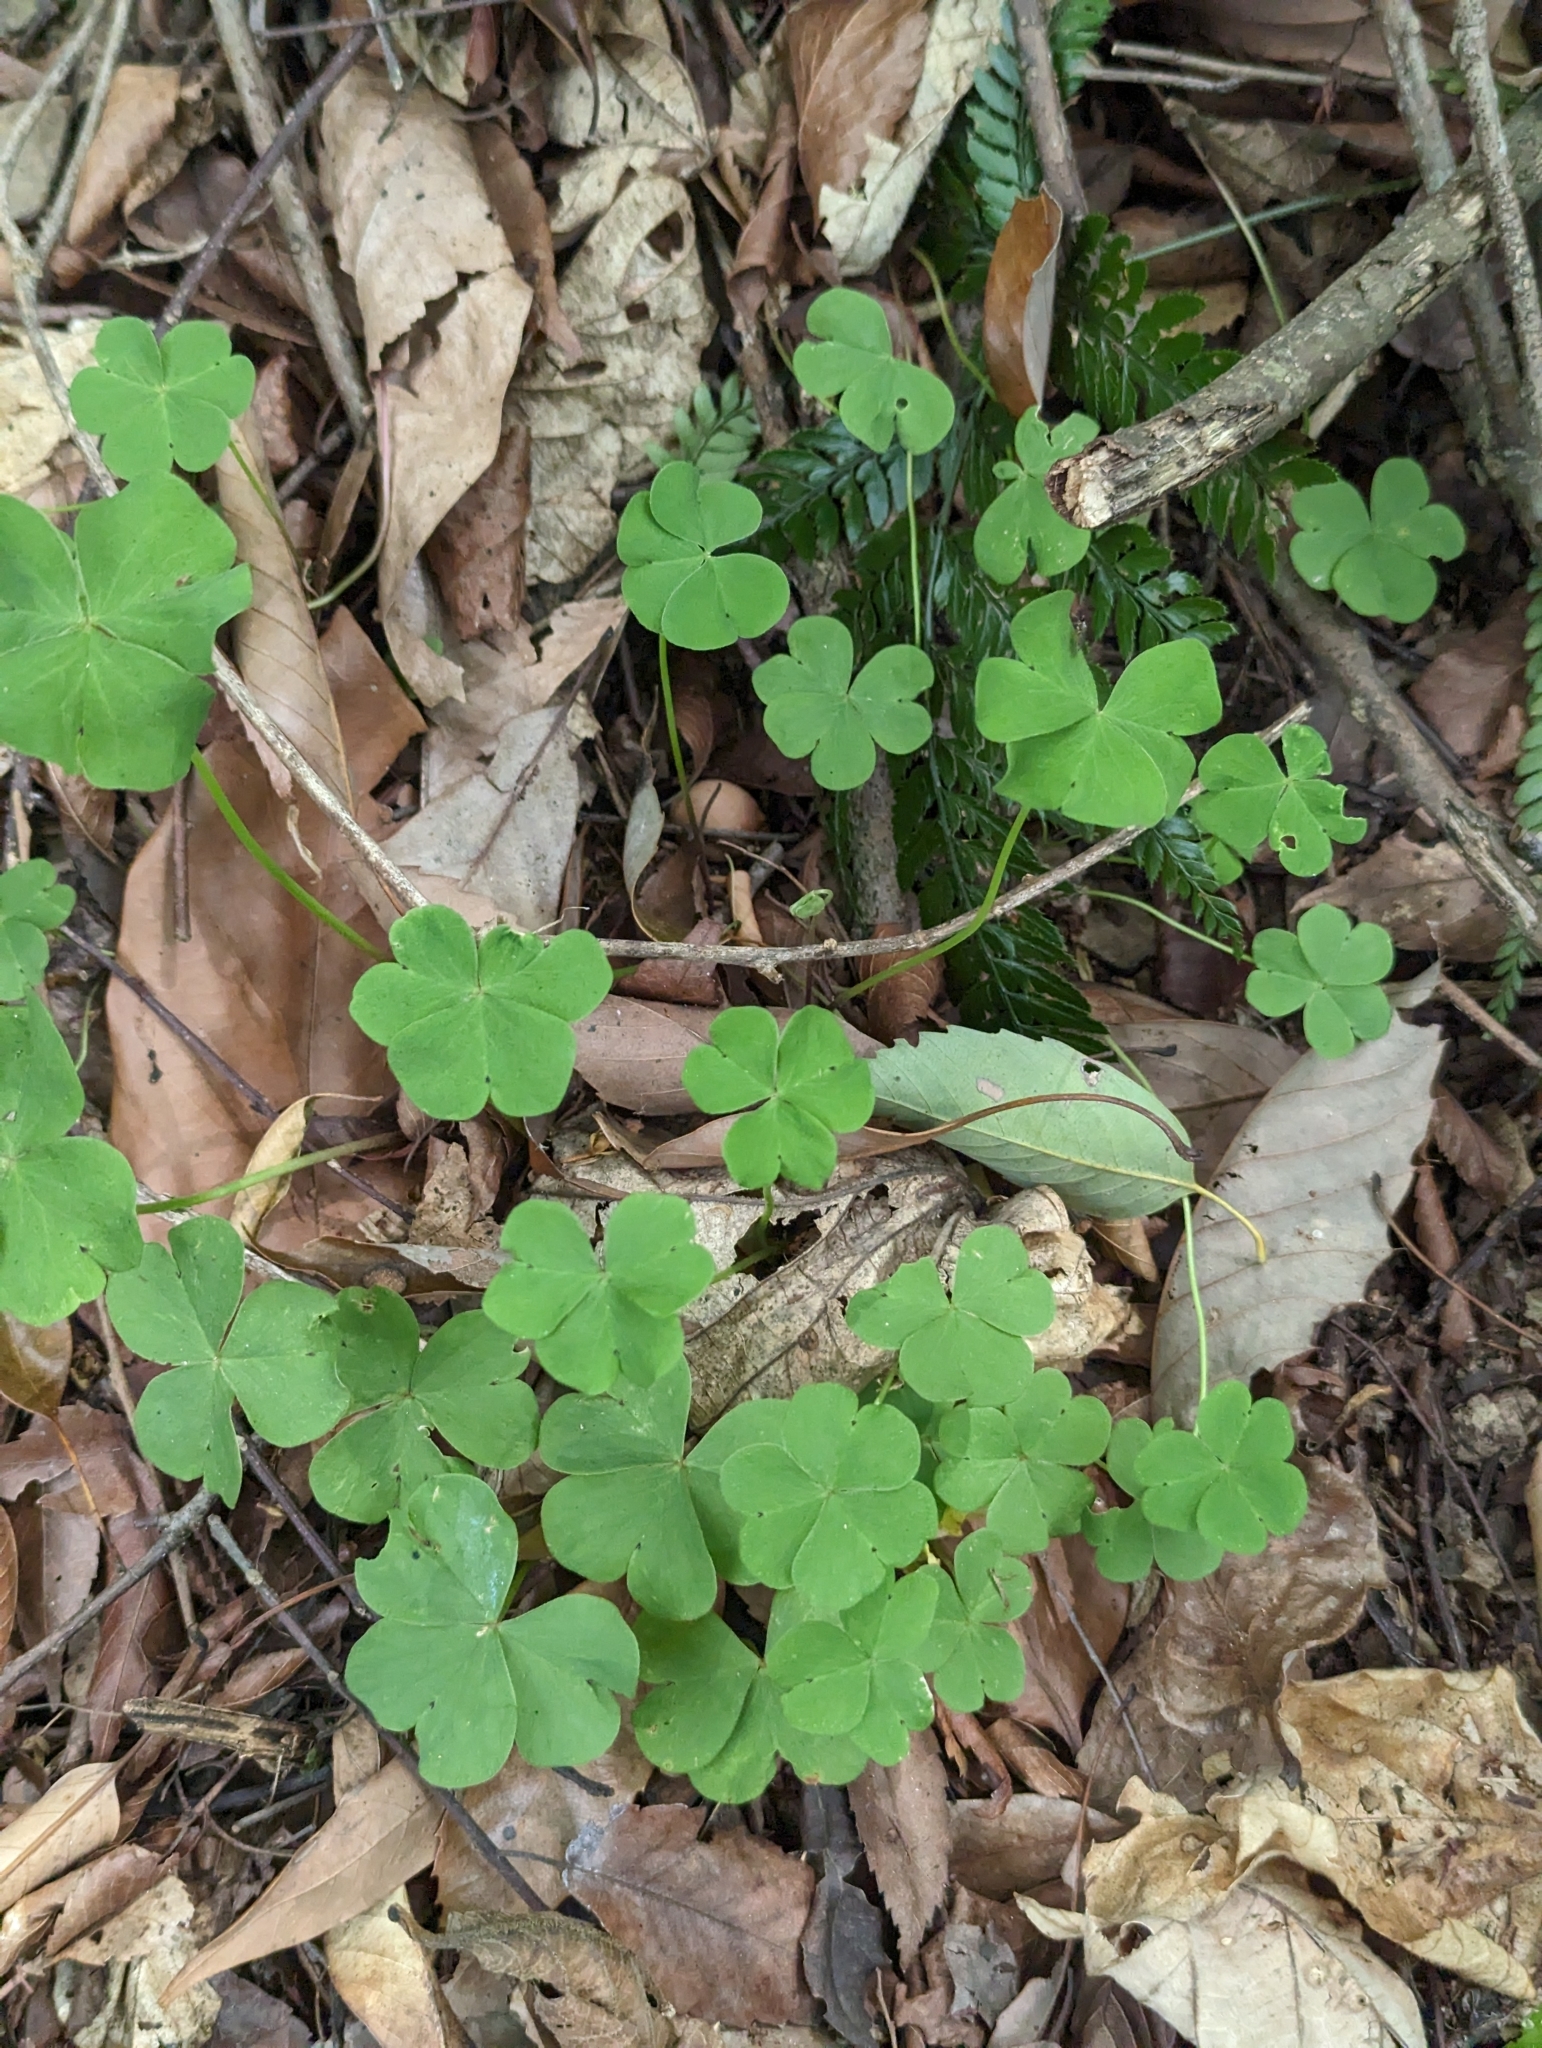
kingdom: Plantae
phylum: Tracheophyta
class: Magnoliopsida
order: Oxalidales
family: Oxalidaceae
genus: Oxalis
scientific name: Oxalis debilis
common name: Large-flowered pink-sorrel
